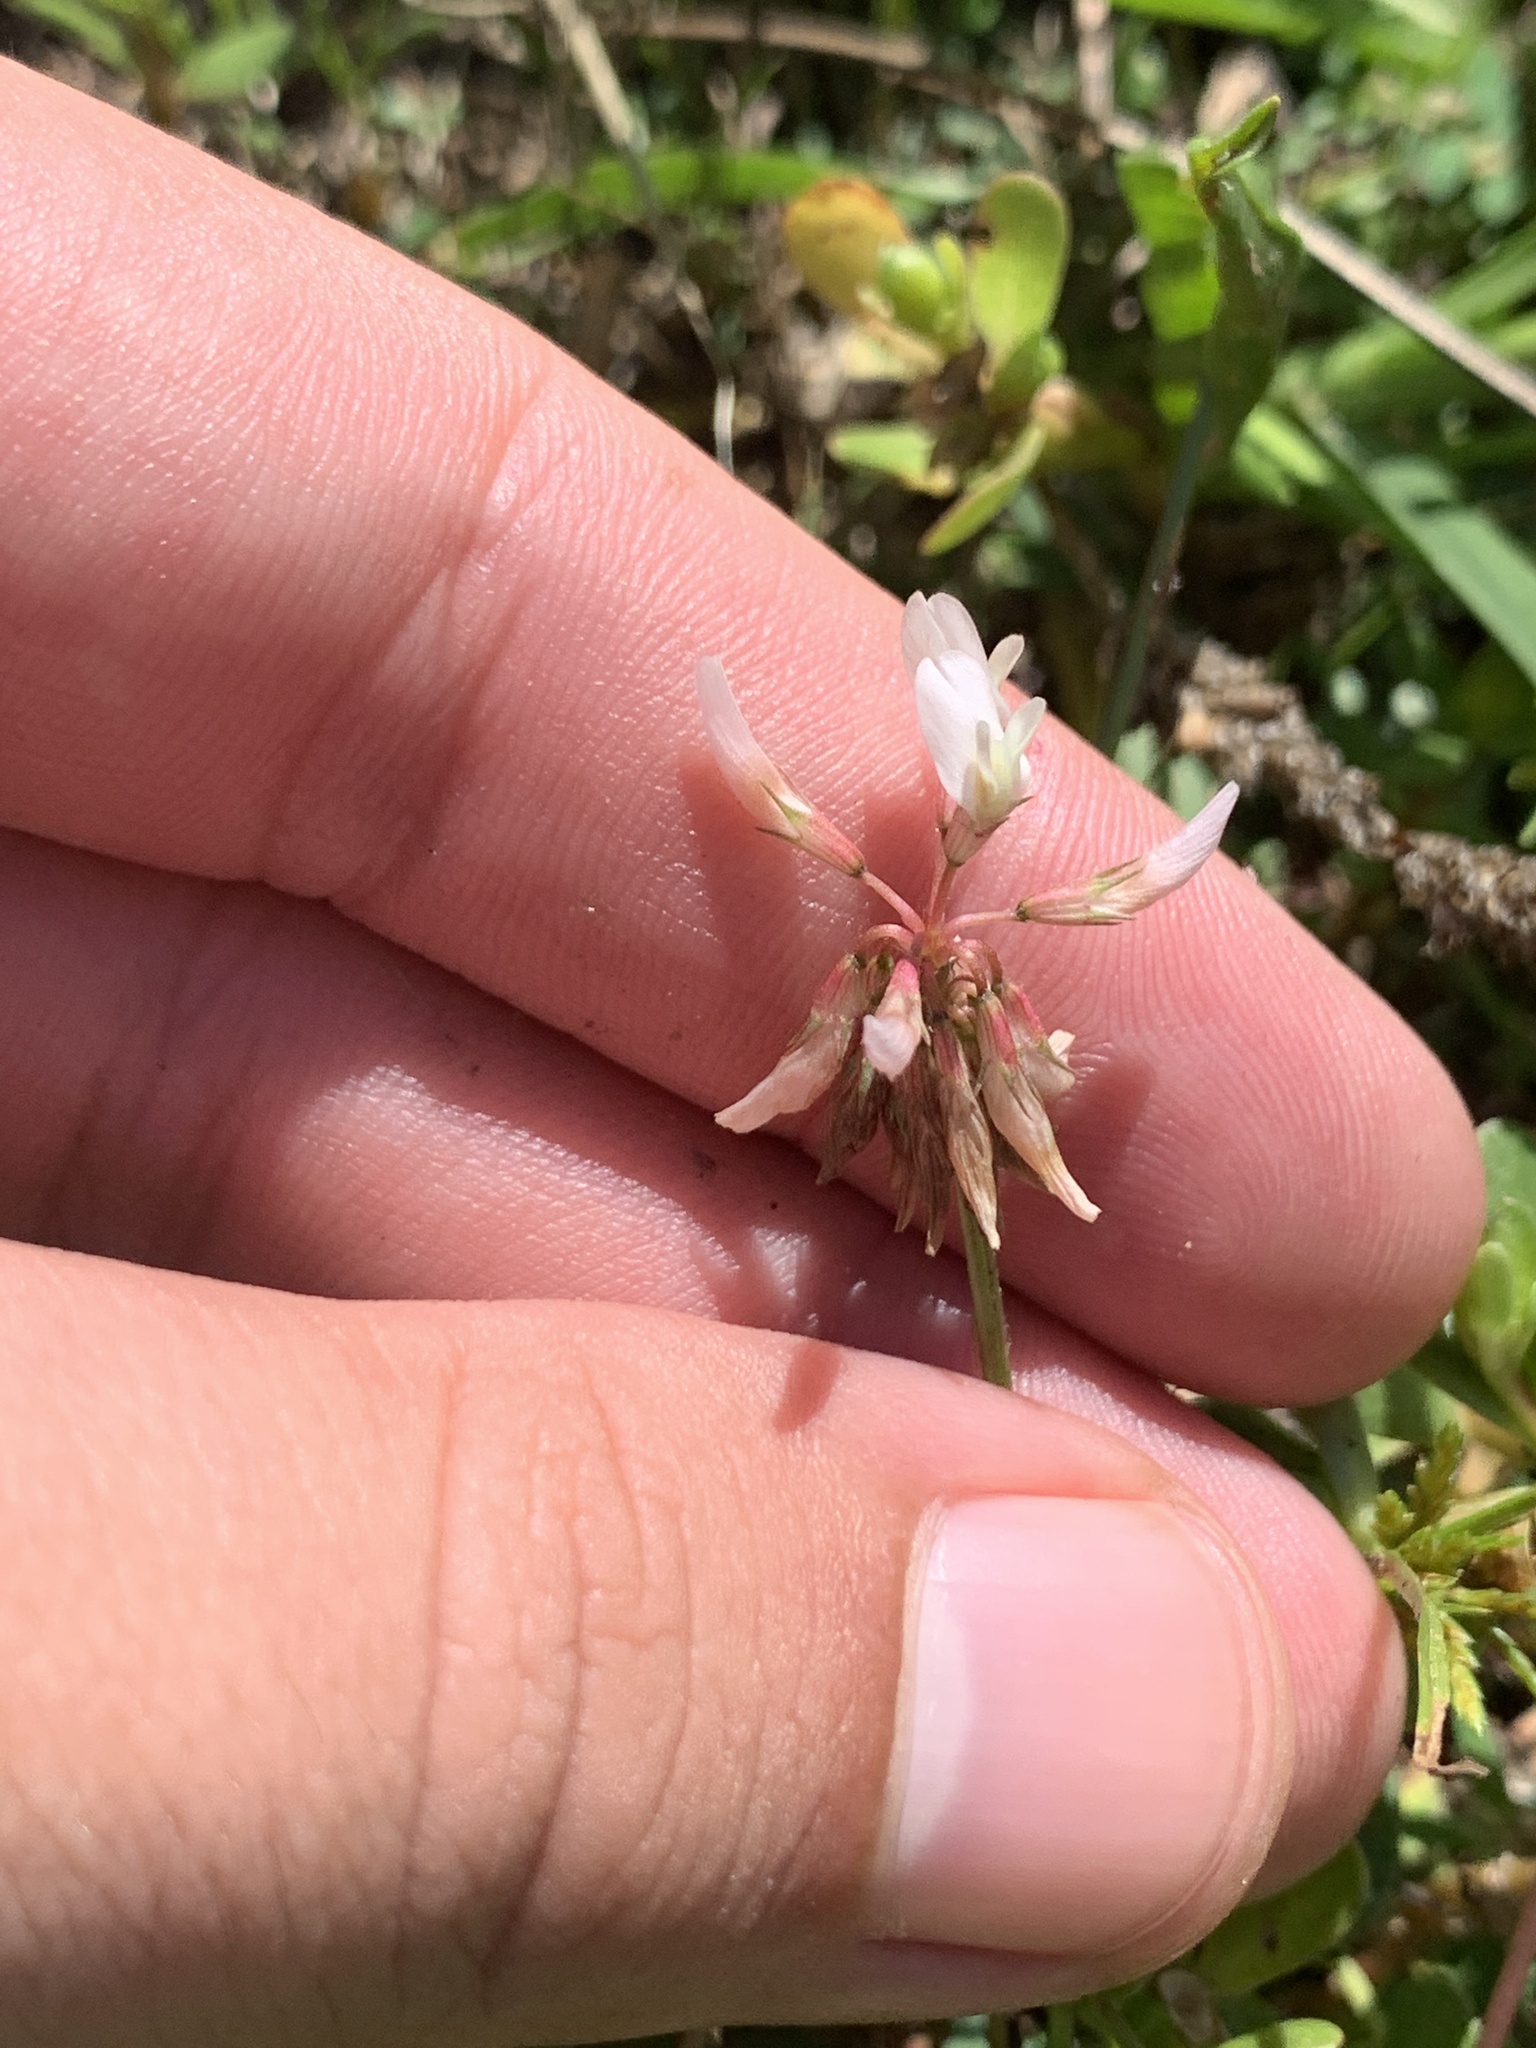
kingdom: Plantae
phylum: Tracheophyta
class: Magnoliopsida
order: Fabales
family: Fabaceae
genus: Trifolium
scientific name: Trifolium repens
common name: White clover
